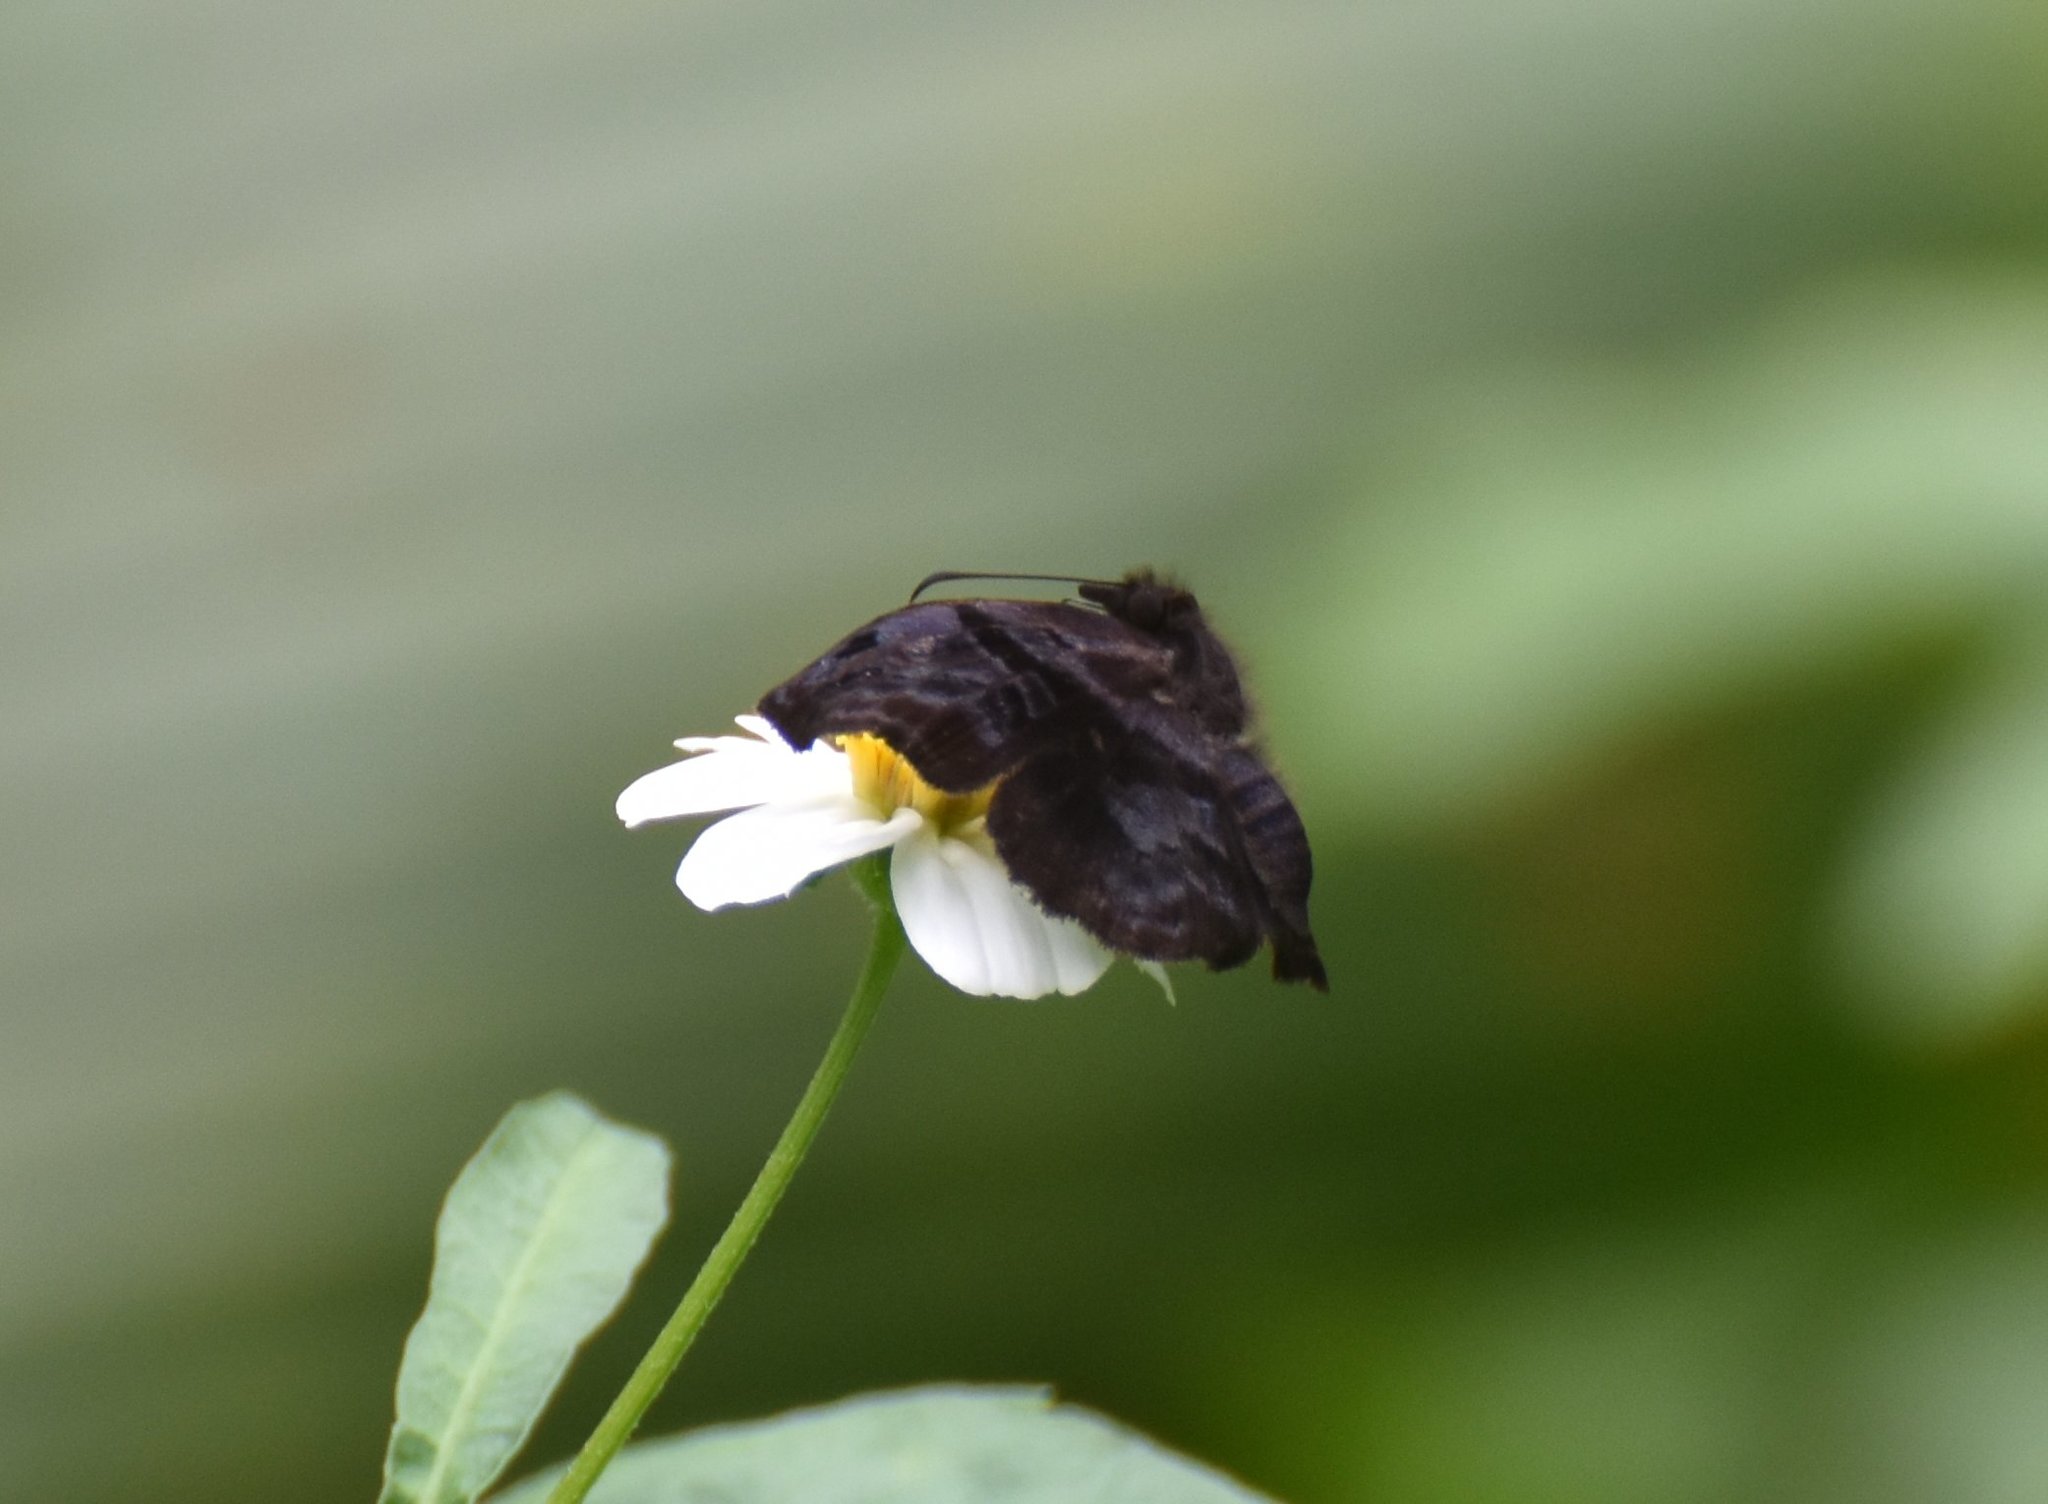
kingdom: Animalia
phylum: Arthropoda
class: Insecta
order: Lepidoptera
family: Hesperiidae
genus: Helias
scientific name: Helias phalaenoides
